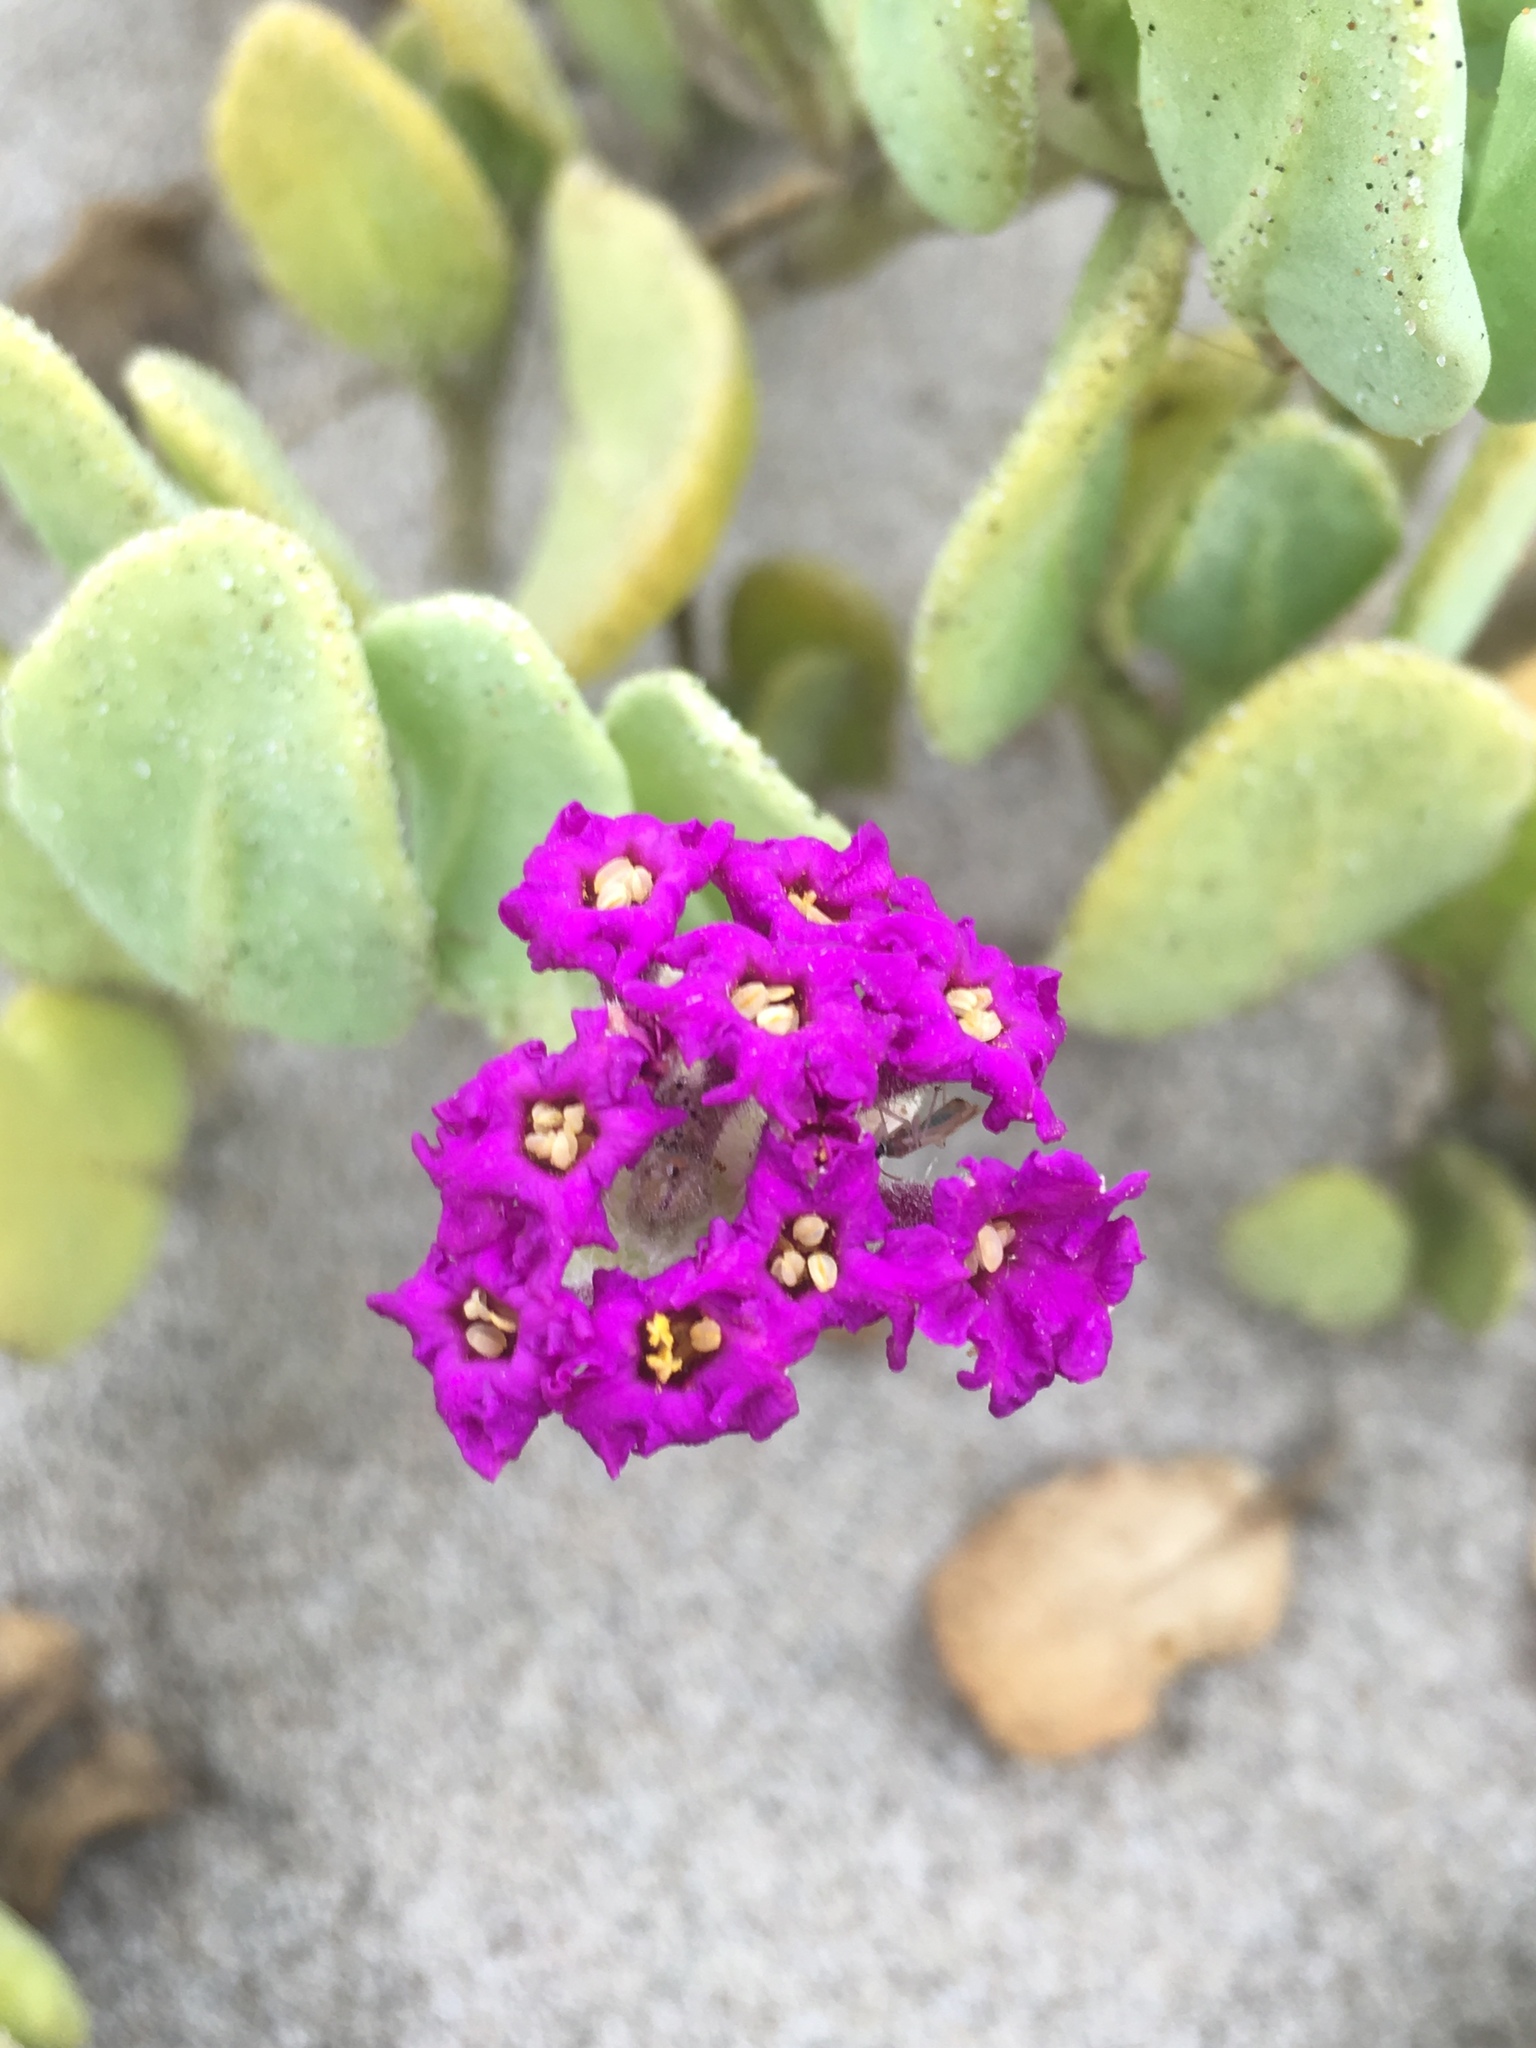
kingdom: Plantae
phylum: Tracheophyta
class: Magnoliopsida
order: Caryophyllales
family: Nyctaginaceae
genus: Abronia
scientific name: Abronia maritima
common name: Red sand-verbena
